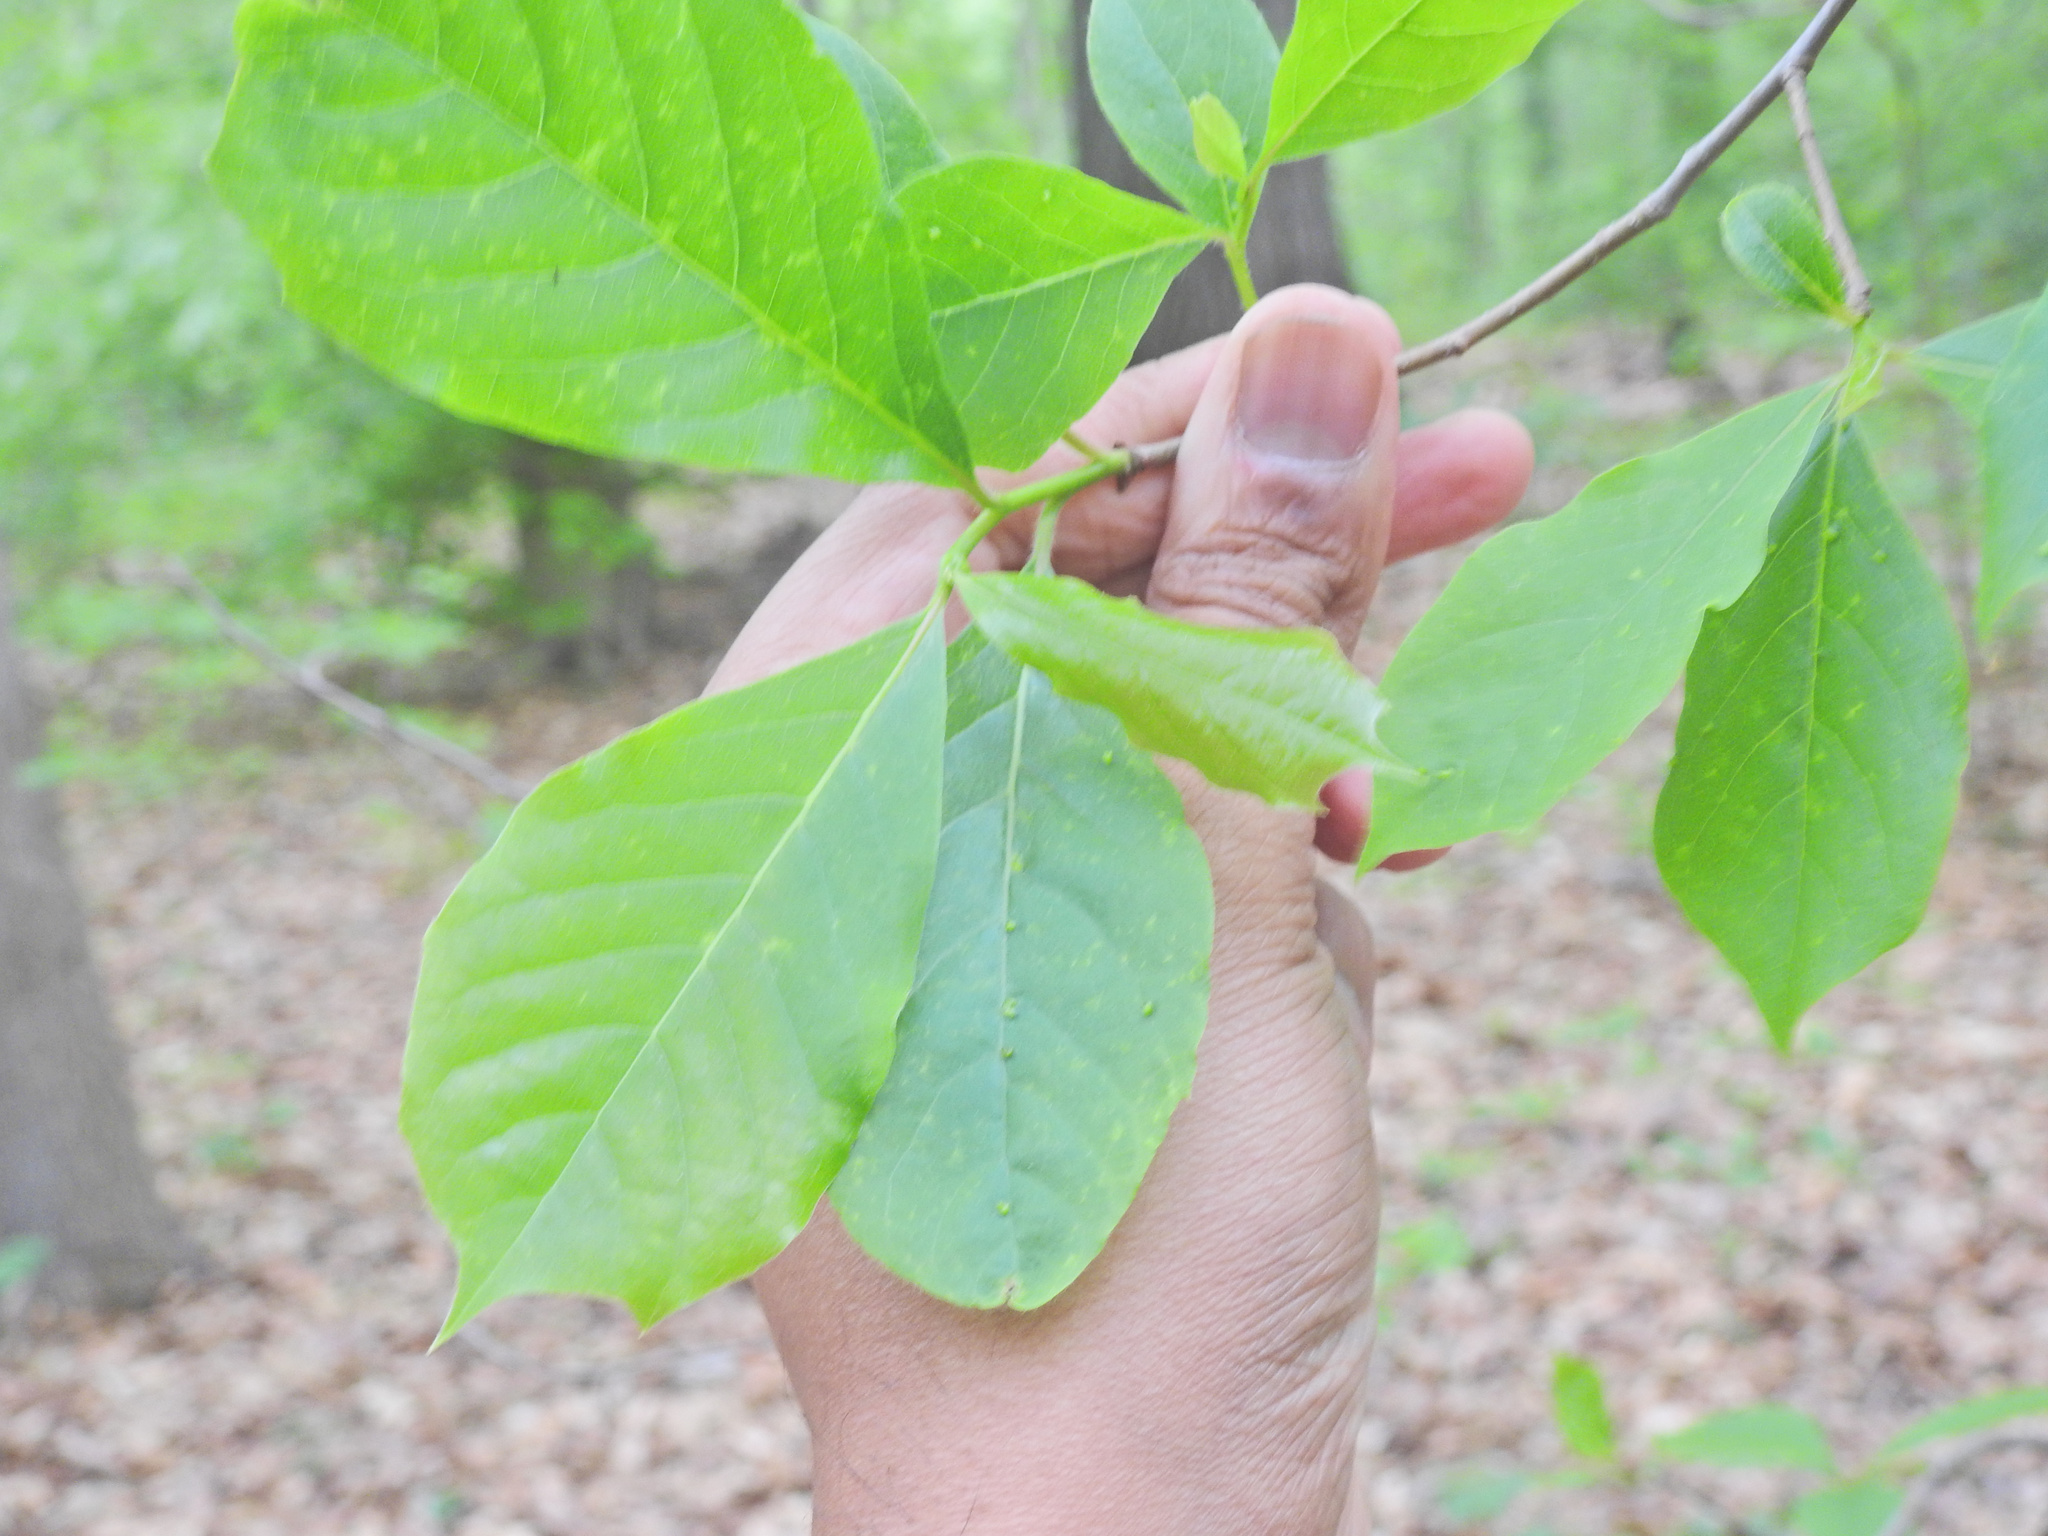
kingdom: Plantae
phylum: Tracheophyta
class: Magnoliopsida
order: Cornales
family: Nyssaceae
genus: Nyssa
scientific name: Nyssa sylvatica
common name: Black tupelo
